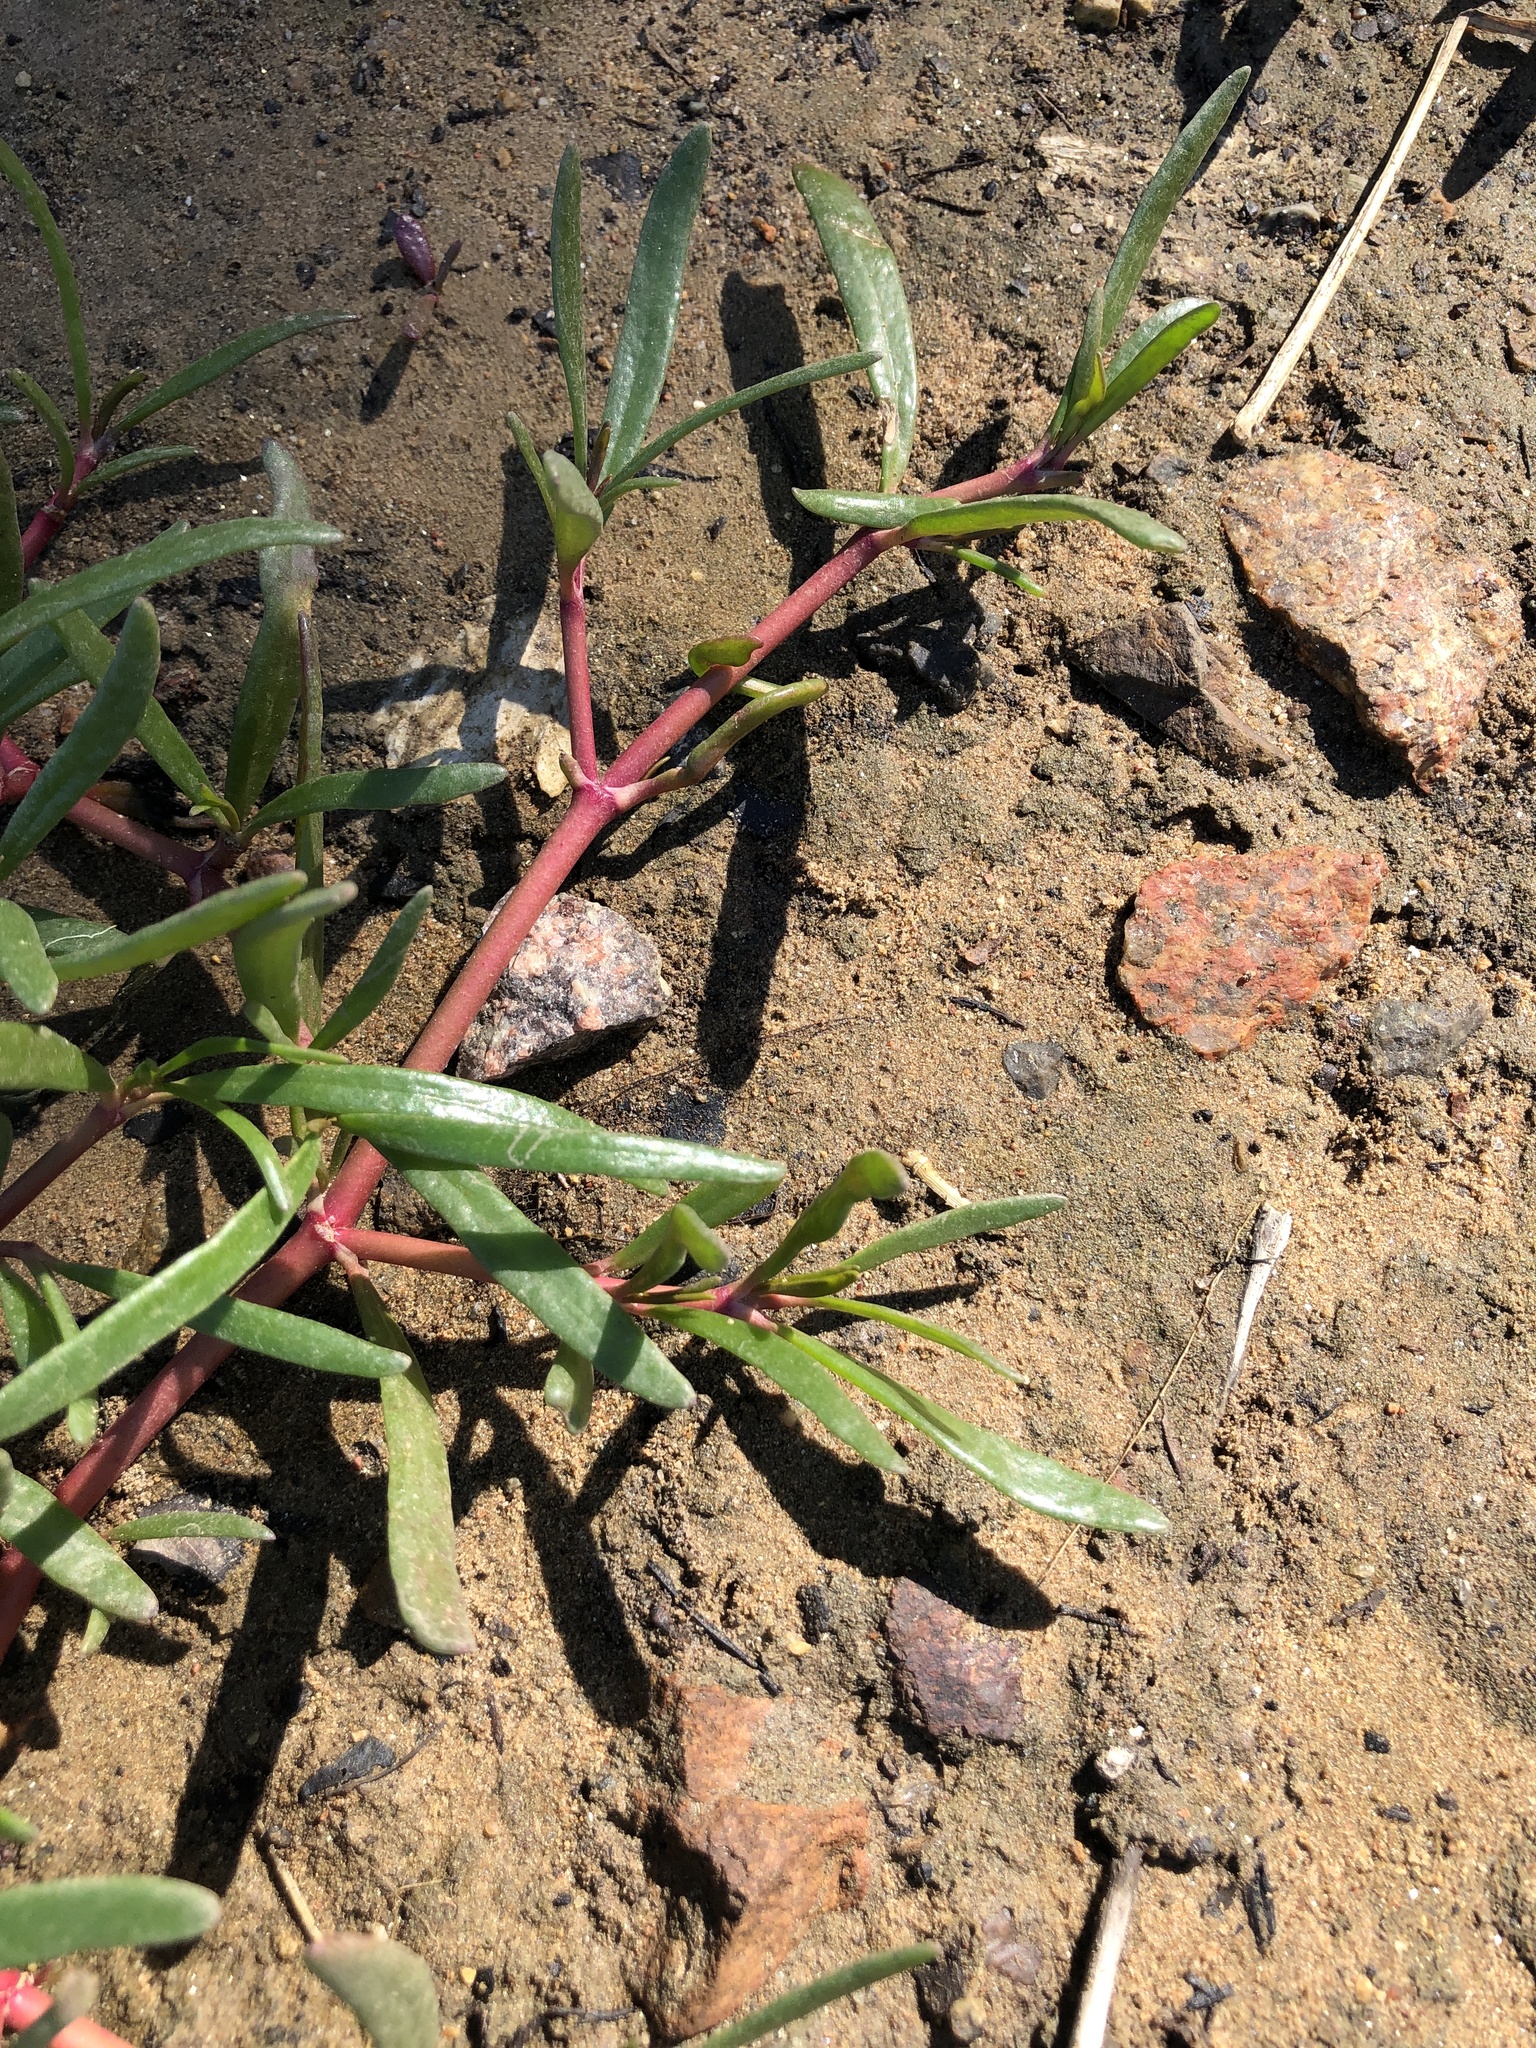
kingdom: Plantae
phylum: Tracheophyta
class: Magnoliopsida
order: Caryophyllales
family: Aizoaceae
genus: Sesuvium
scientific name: Sesuvium portulacastrum
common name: Sea-purslane
